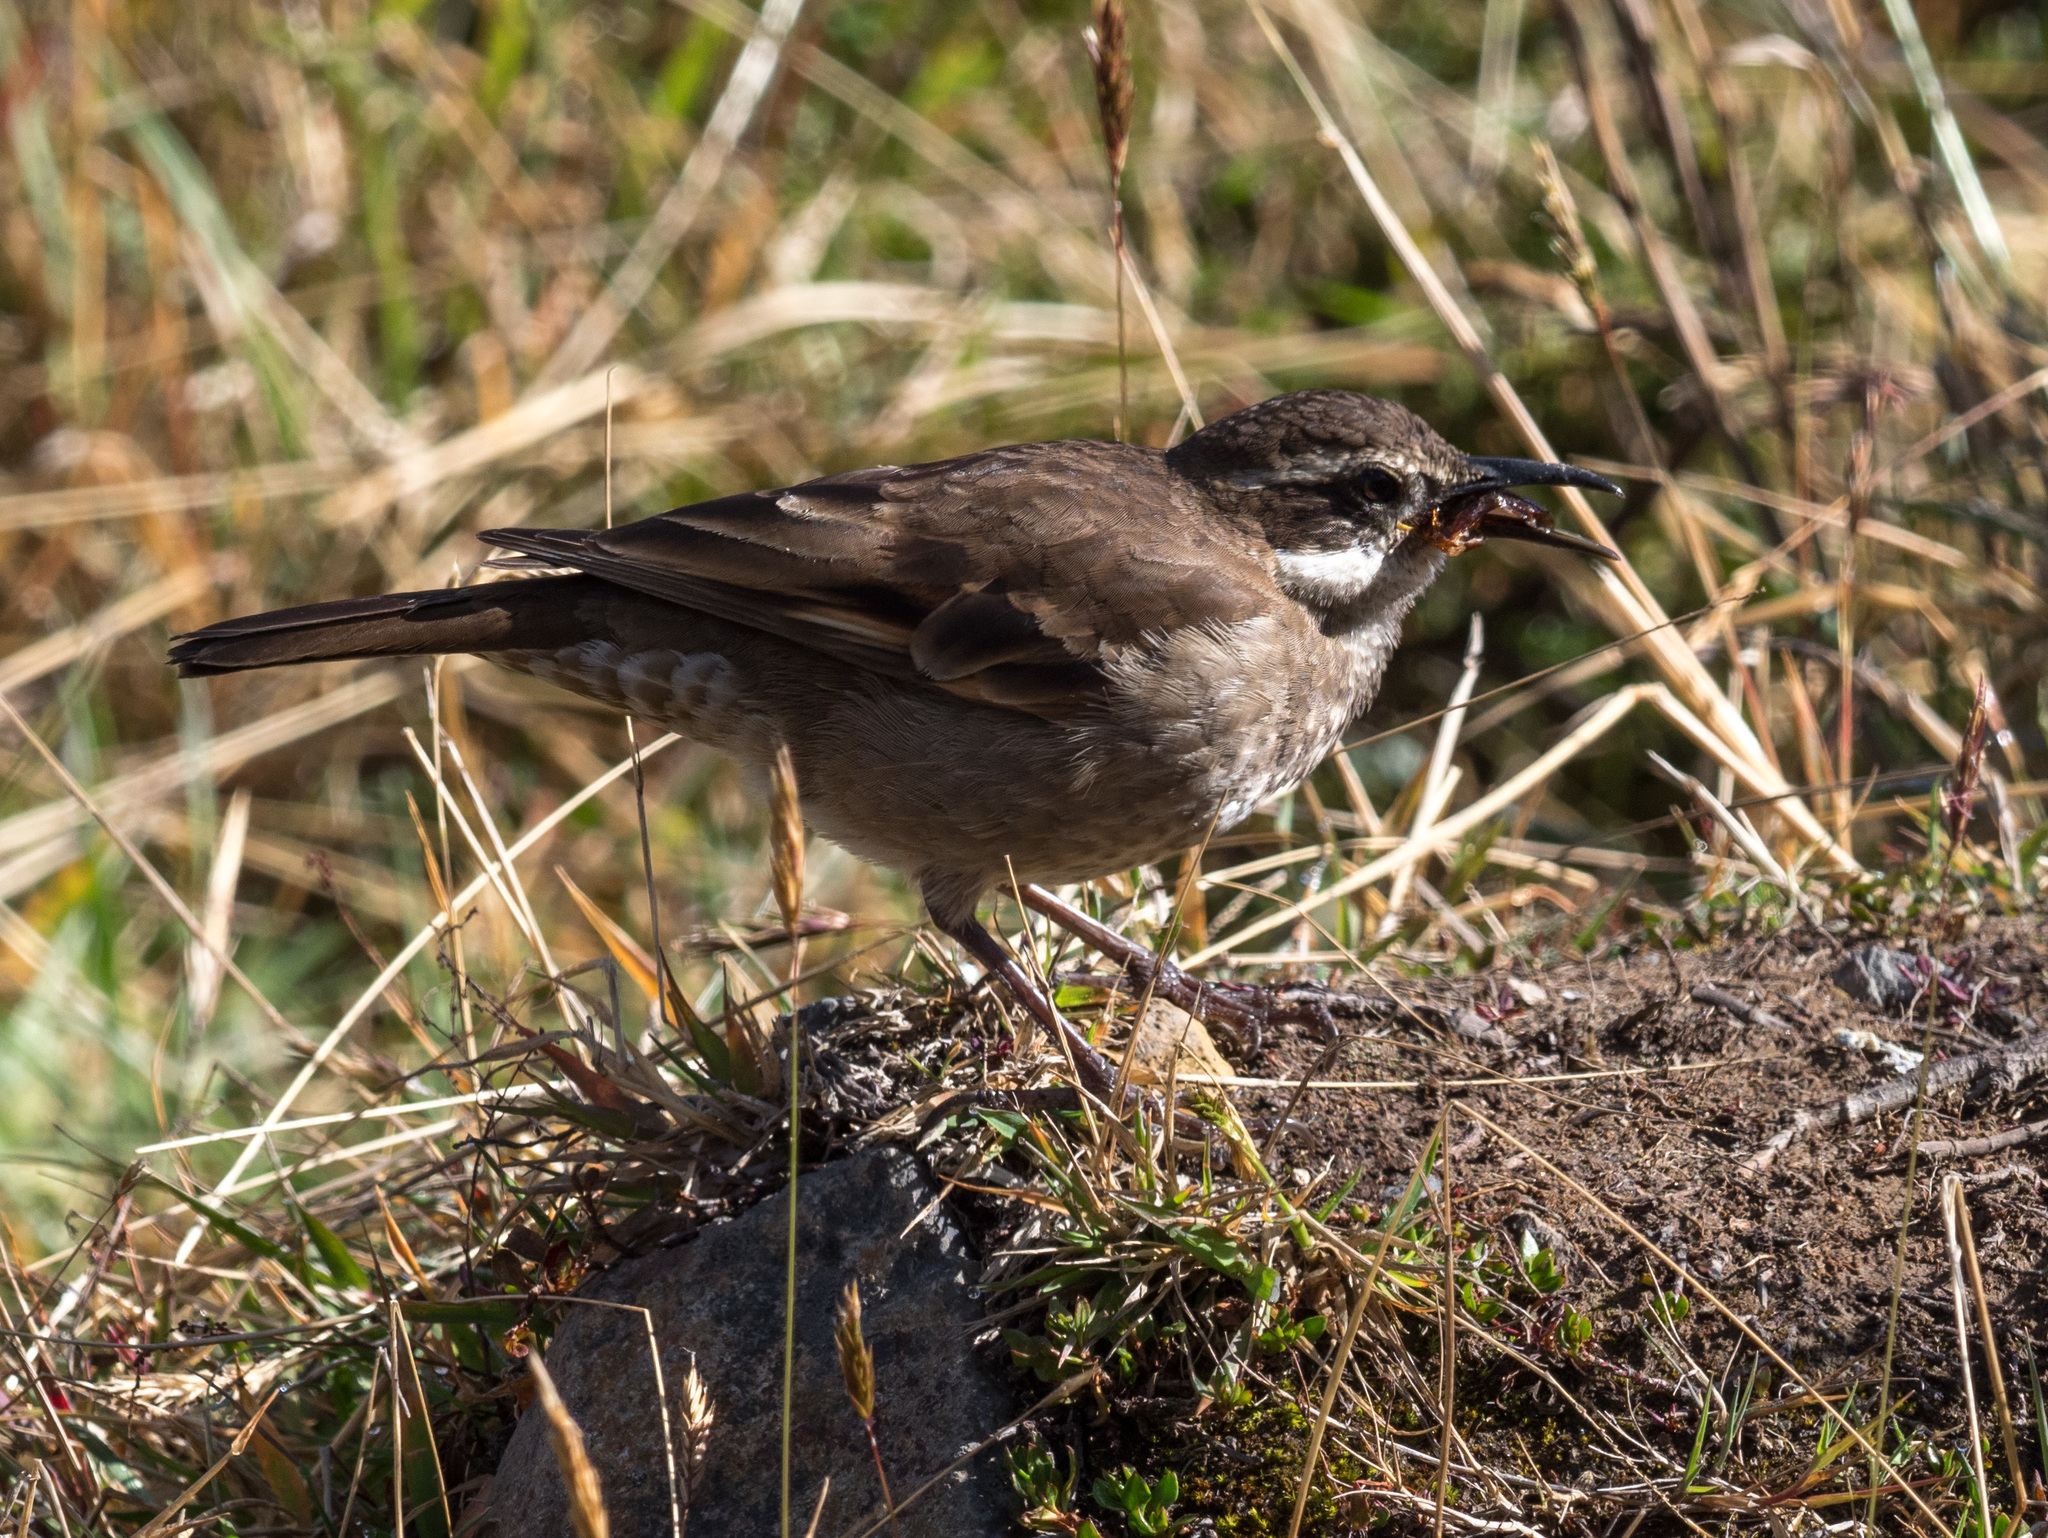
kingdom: Animalia
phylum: Chordata
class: Aves
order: Passeriformes
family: Furnariidae
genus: Cinclodes
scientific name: Cinclodes excelsior
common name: Stout-billed cinclodes
